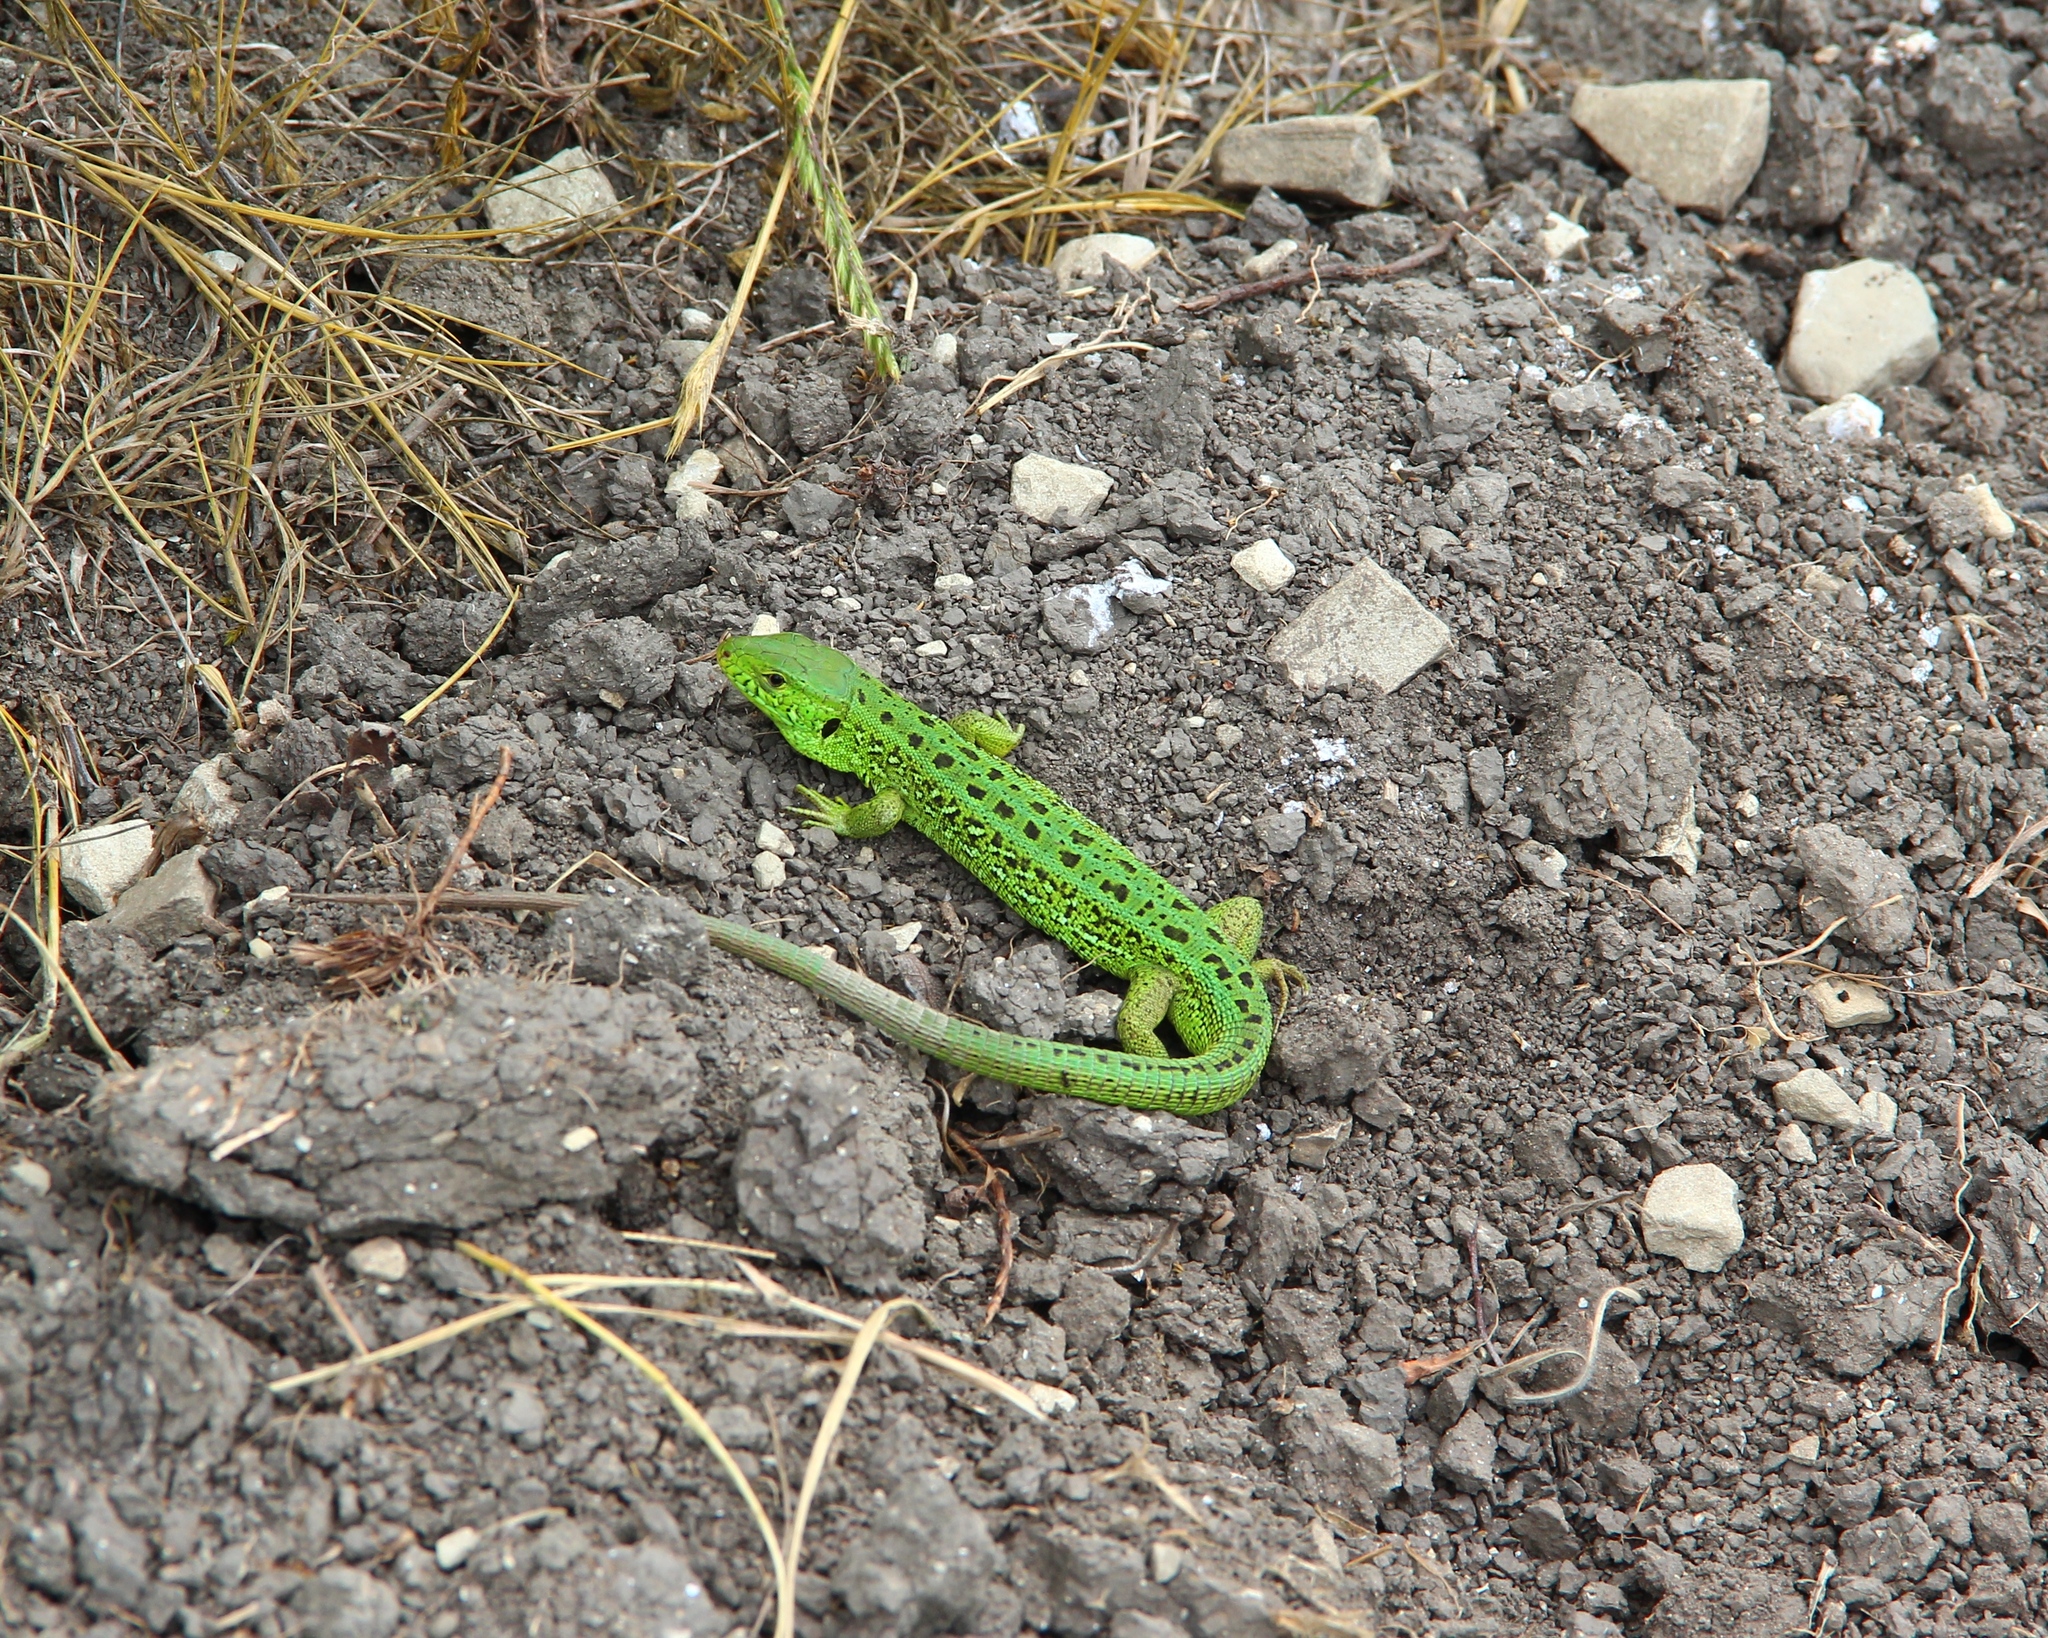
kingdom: Animalia
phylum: Chordata
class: Squamata
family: Lacertidae
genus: Lacerta
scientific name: Lacerta agilis
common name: Sand lizard
